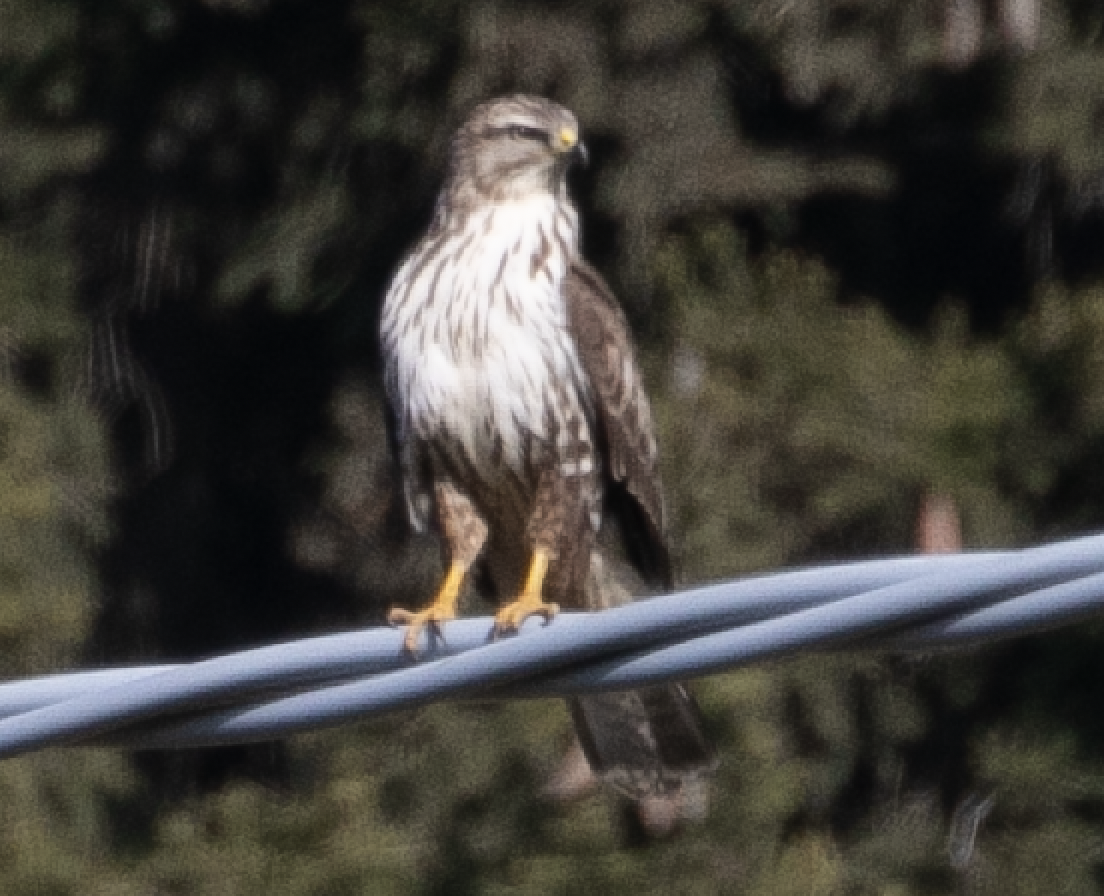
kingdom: Animalia
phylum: Chordata
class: Aves
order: Accipitriformes
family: Accipitridae
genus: Buteo
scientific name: Buteo buteo
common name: Common buzzard
